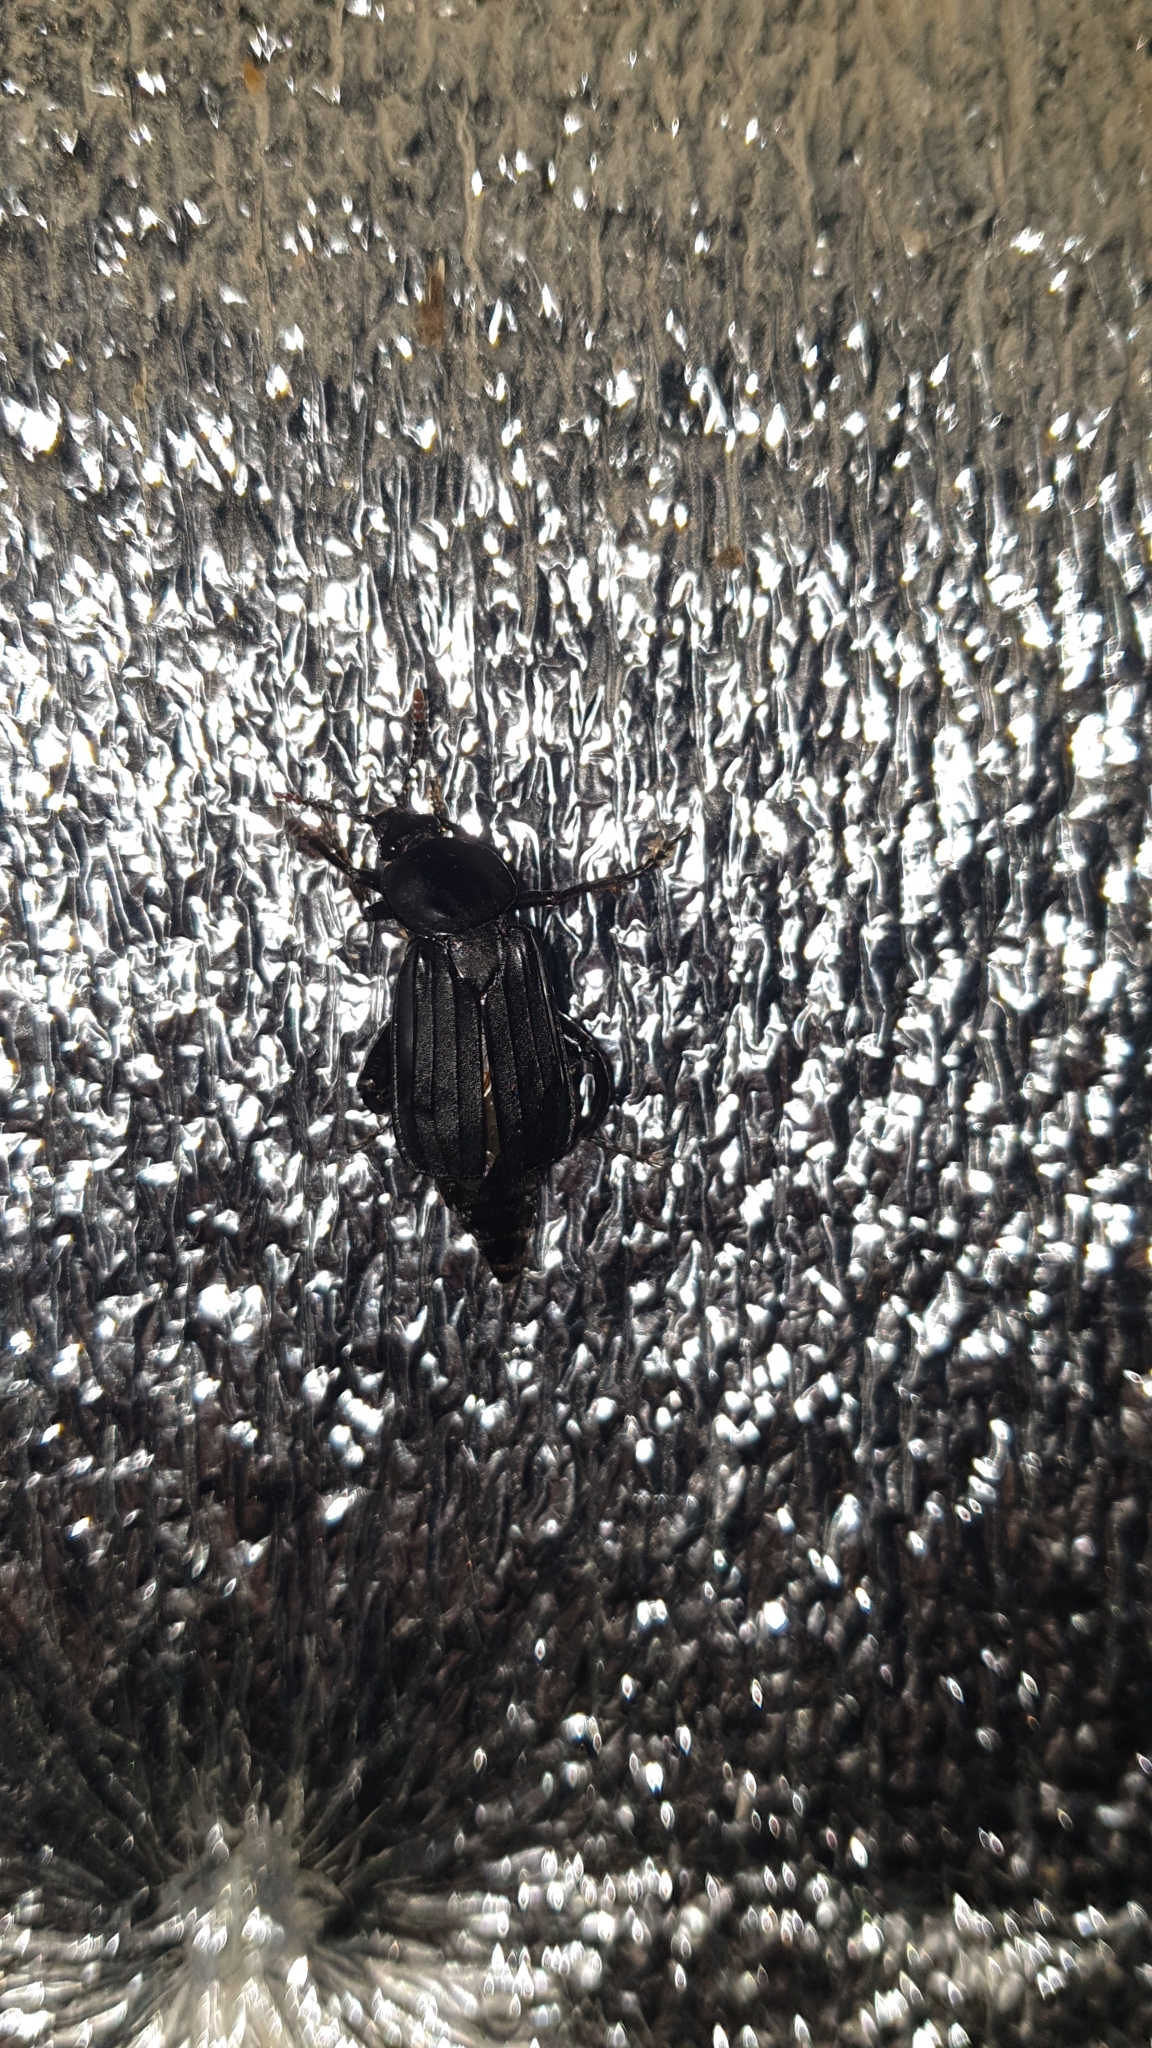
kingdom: Animalia
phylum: Arthropoda
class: Insecta
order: Coleoptera
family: Staphylinidae
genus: Necrodes
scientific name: Necrodes littoralis
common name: Shore sexton beetle
